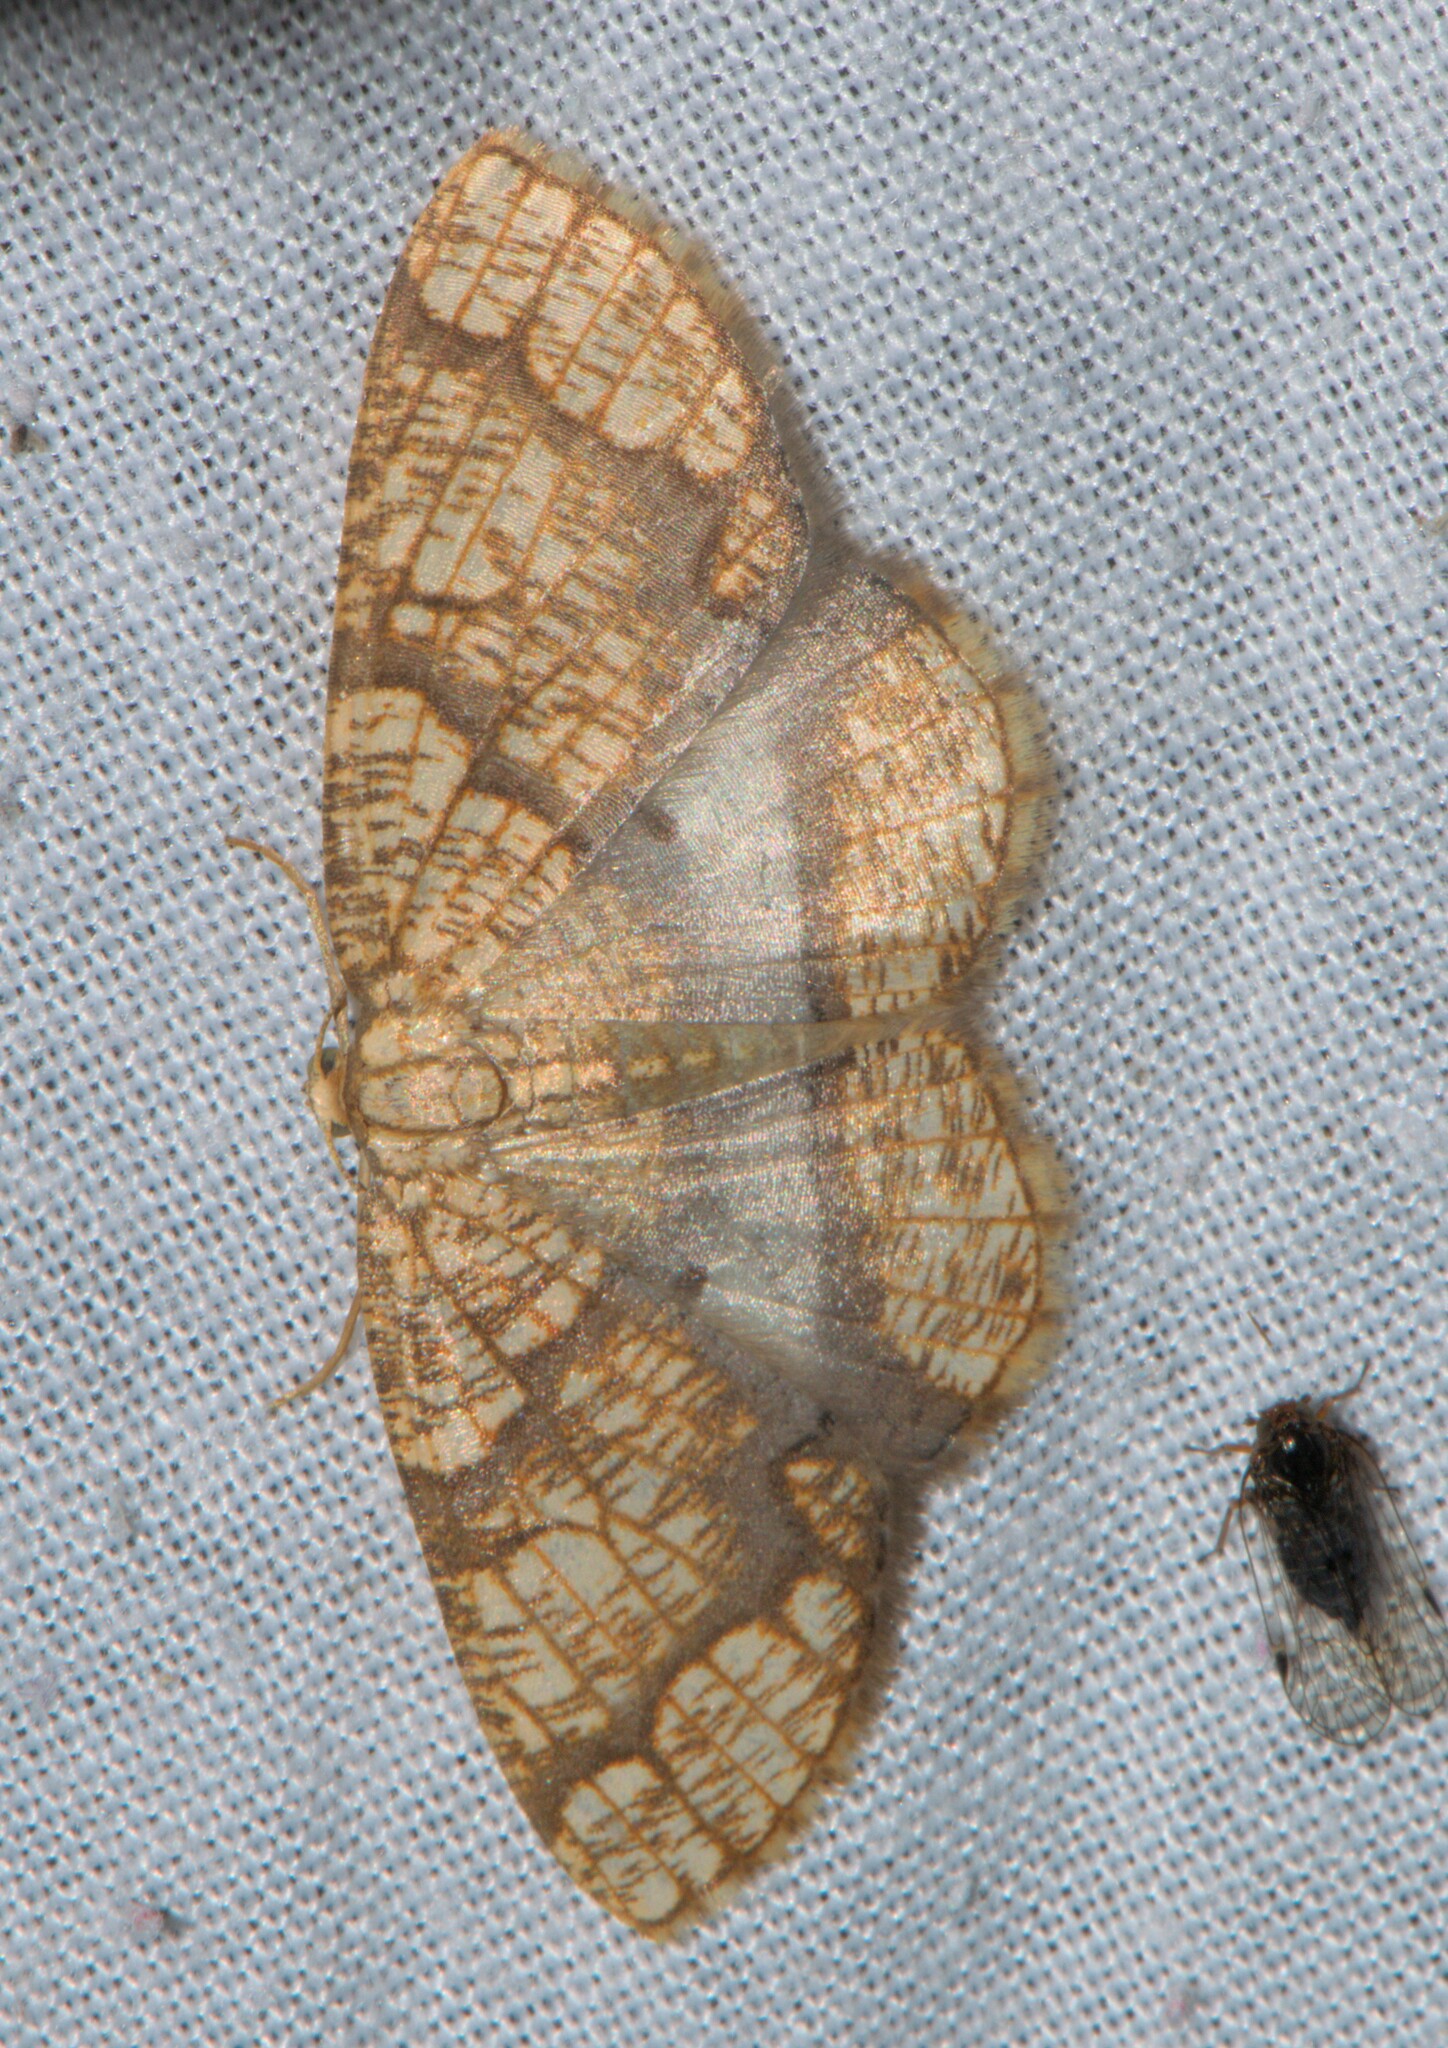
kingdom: Animalia
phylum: Arthropoda
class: Insecta
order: Lepidoptera
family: Geometridae
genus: Orthobrachia
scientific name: Orthobrachia latifasciata
